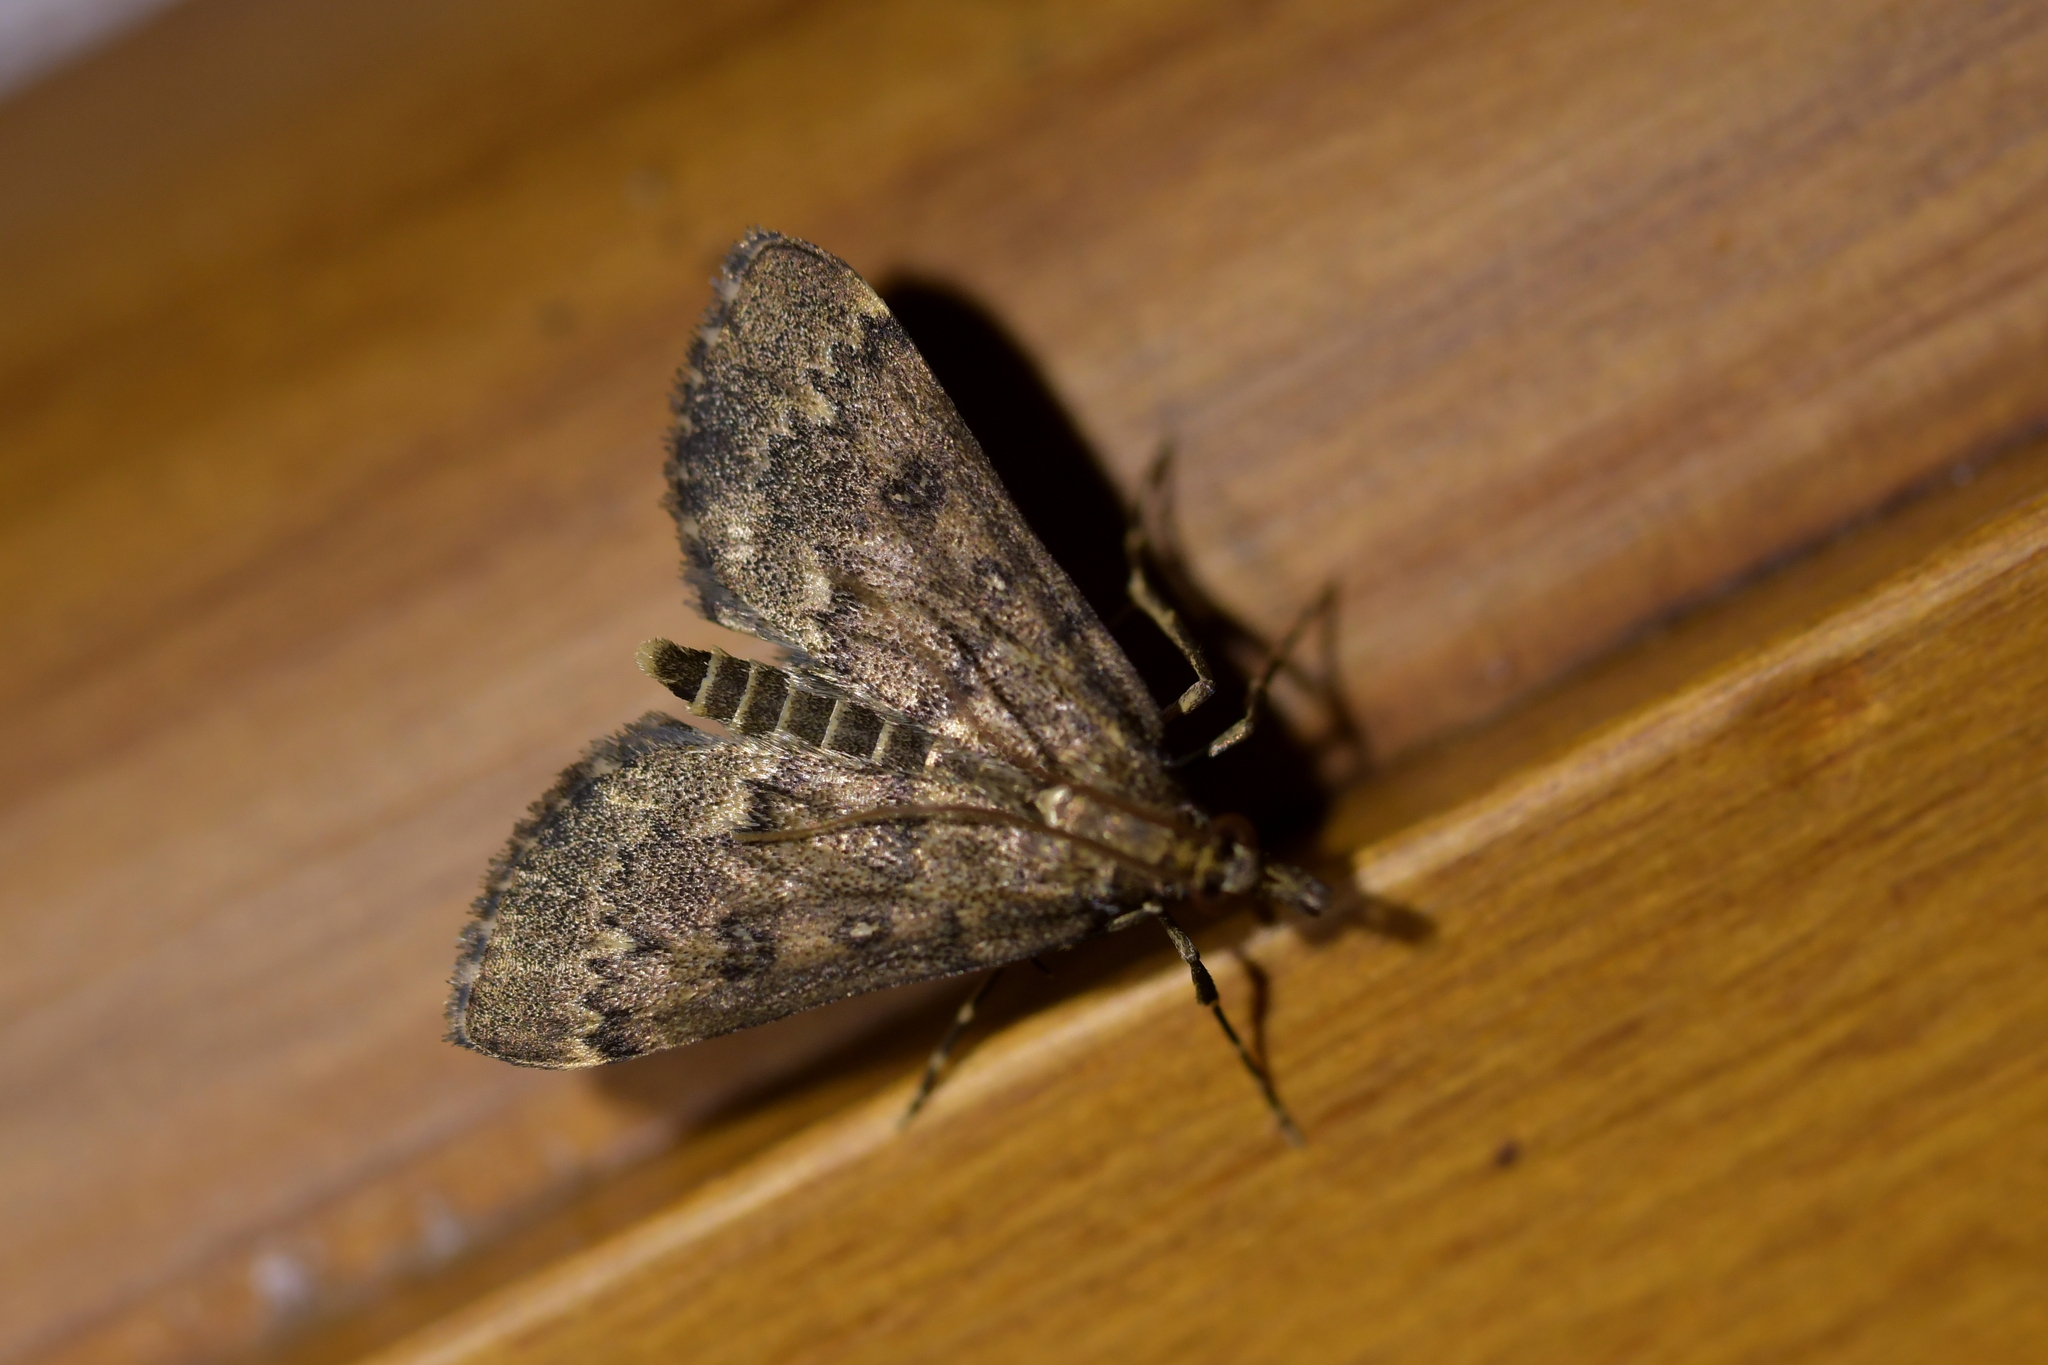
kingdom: Animalia
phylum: Arthropoda
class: Insecta
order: Lepidoptera
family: Crambidae
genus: Loxostege
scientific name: Loxostege Proternia philocapna
